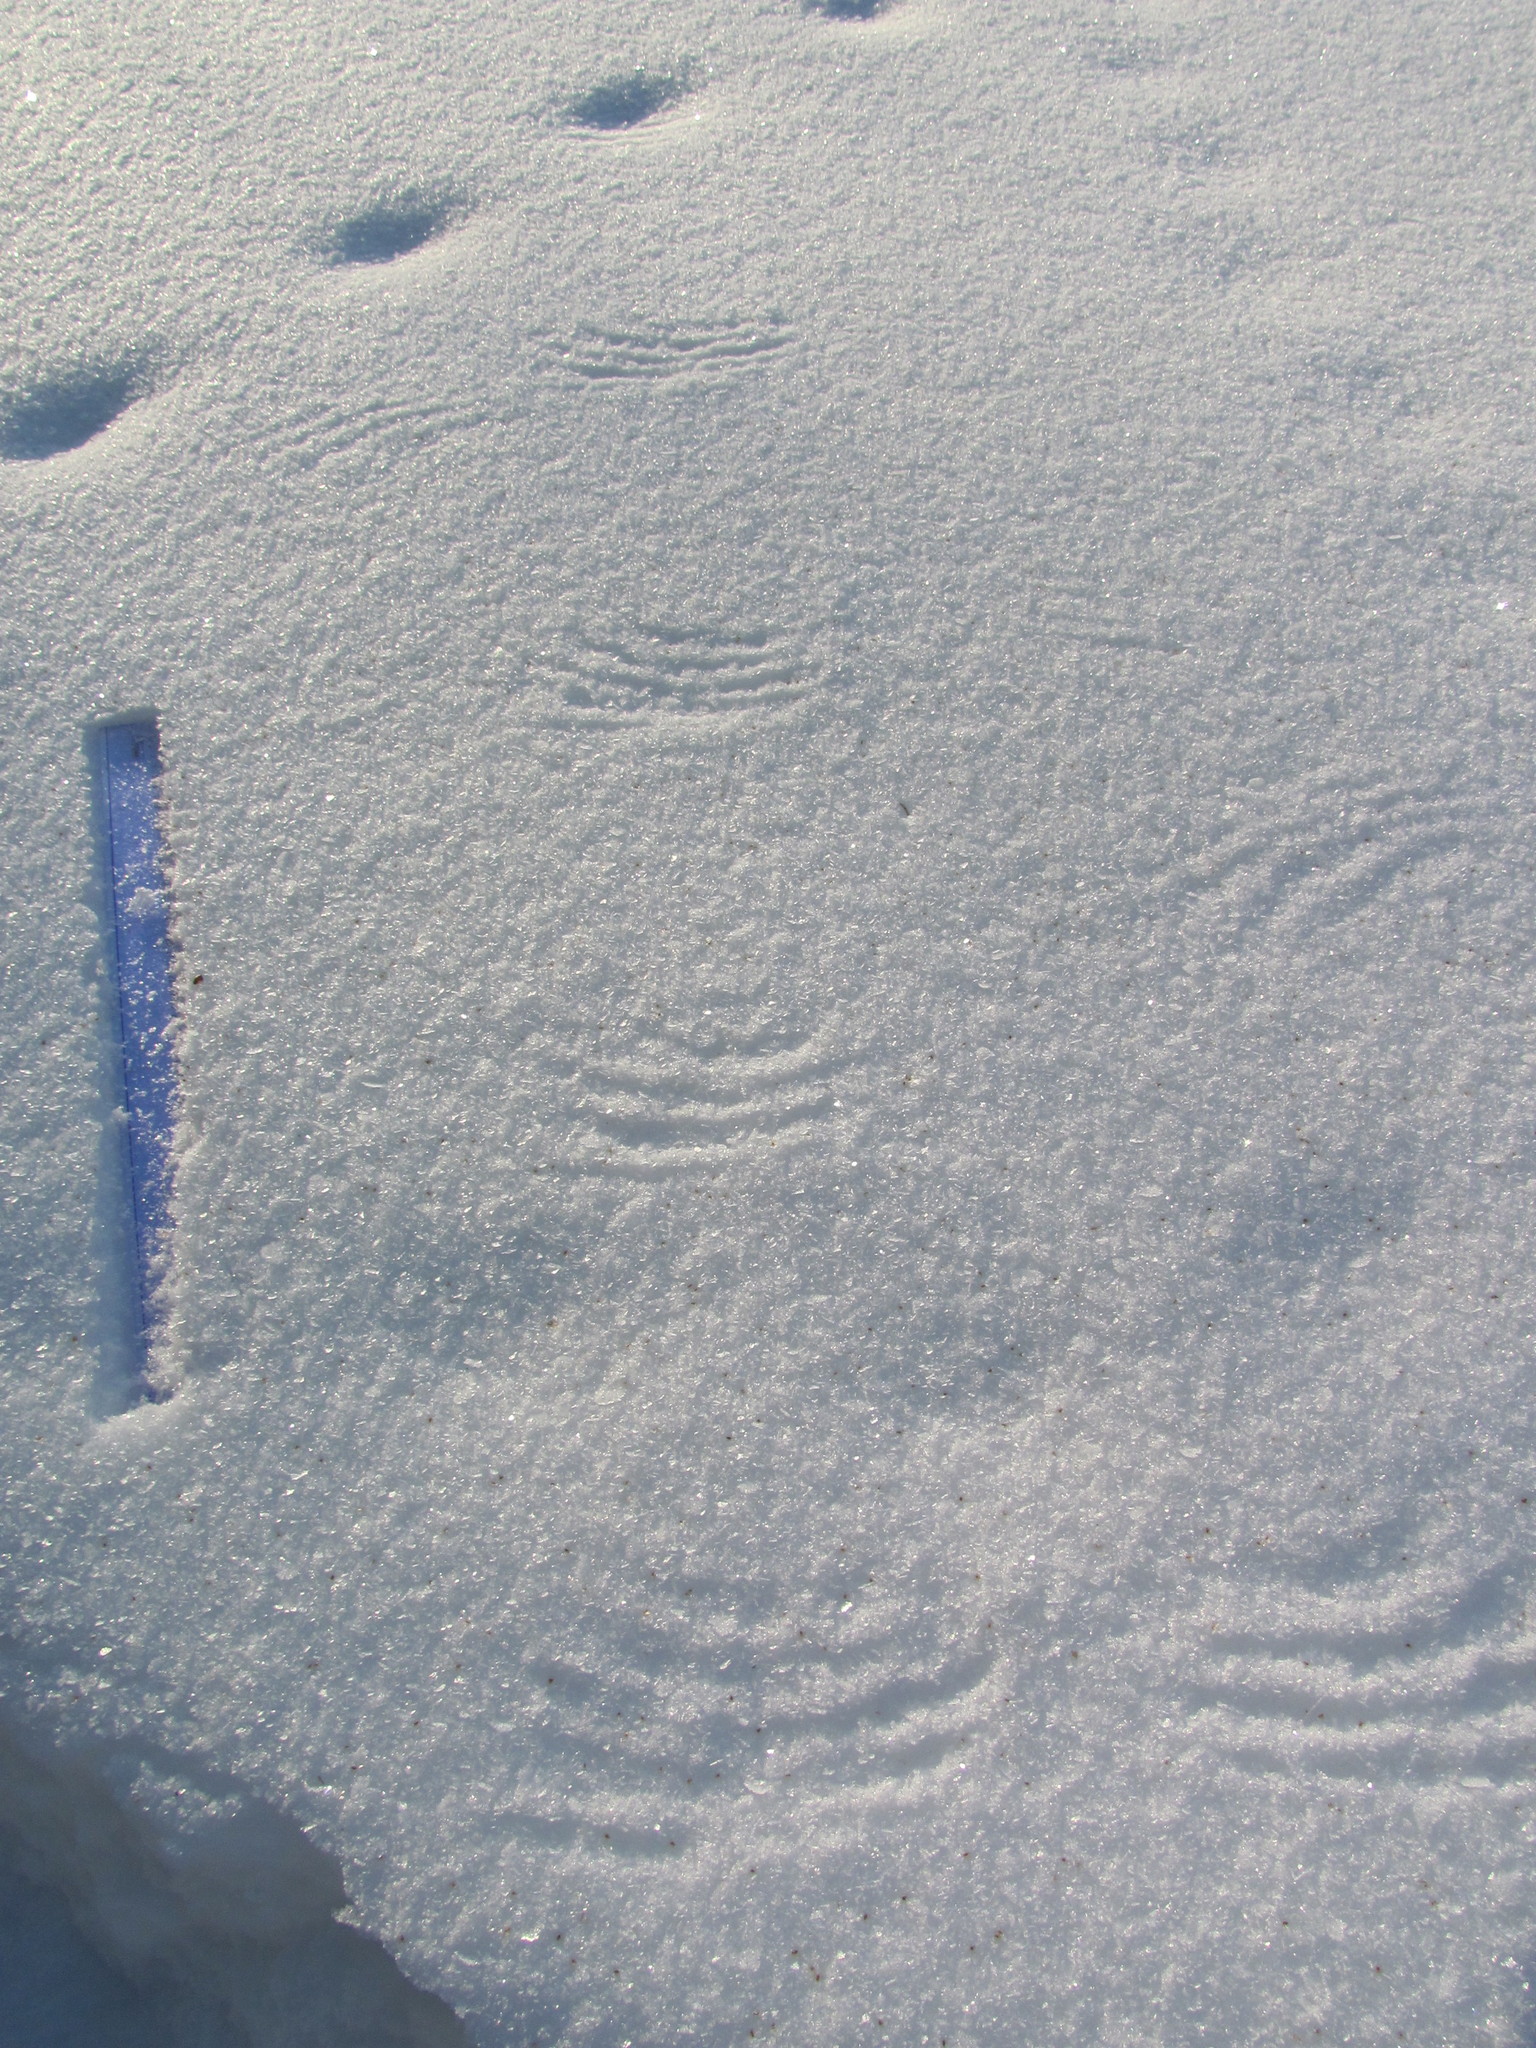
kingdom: Animalia
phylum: Chordata
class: Aves
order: Galliformes
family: Phasianidae
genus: Lagopus
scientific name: Lagopus lagopus
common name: Willow ptarmigan
